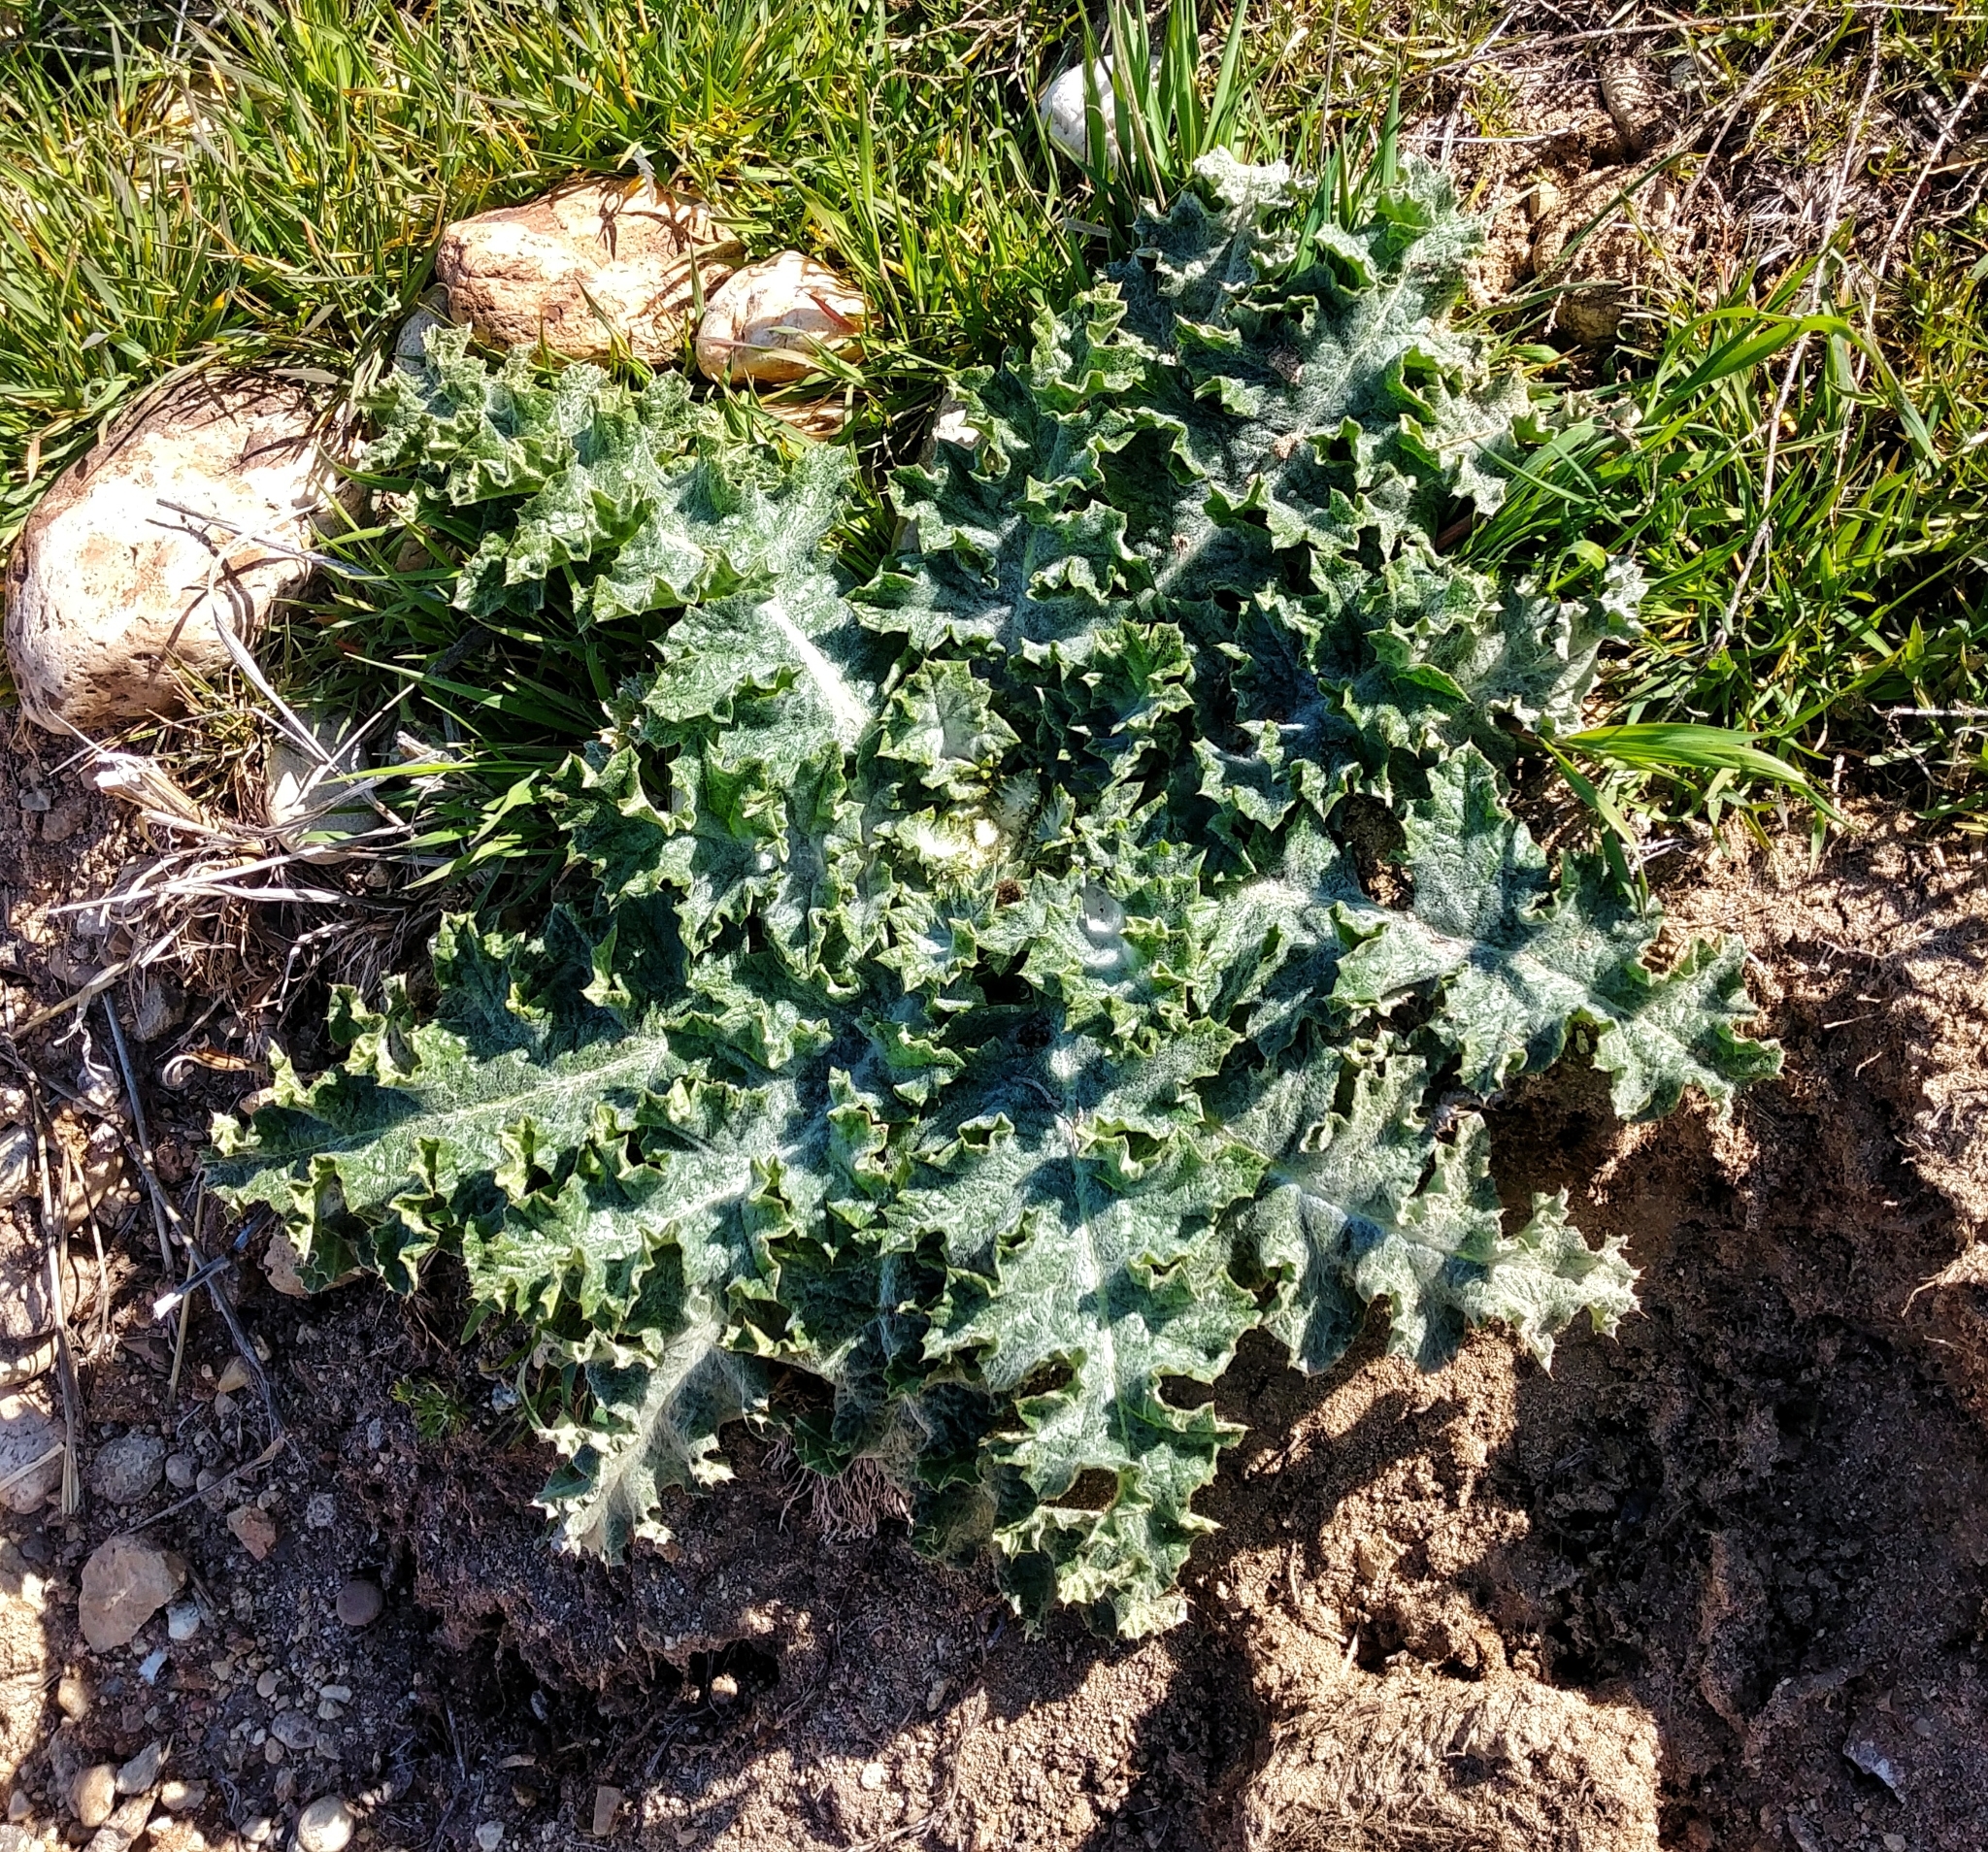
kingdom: Plantae
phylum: Tracheophyta
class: Magnoliopsida
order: Asterales
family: Asteraceae
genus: Onopordum
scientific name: Onopordum acanthium
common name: Scotch thistle
